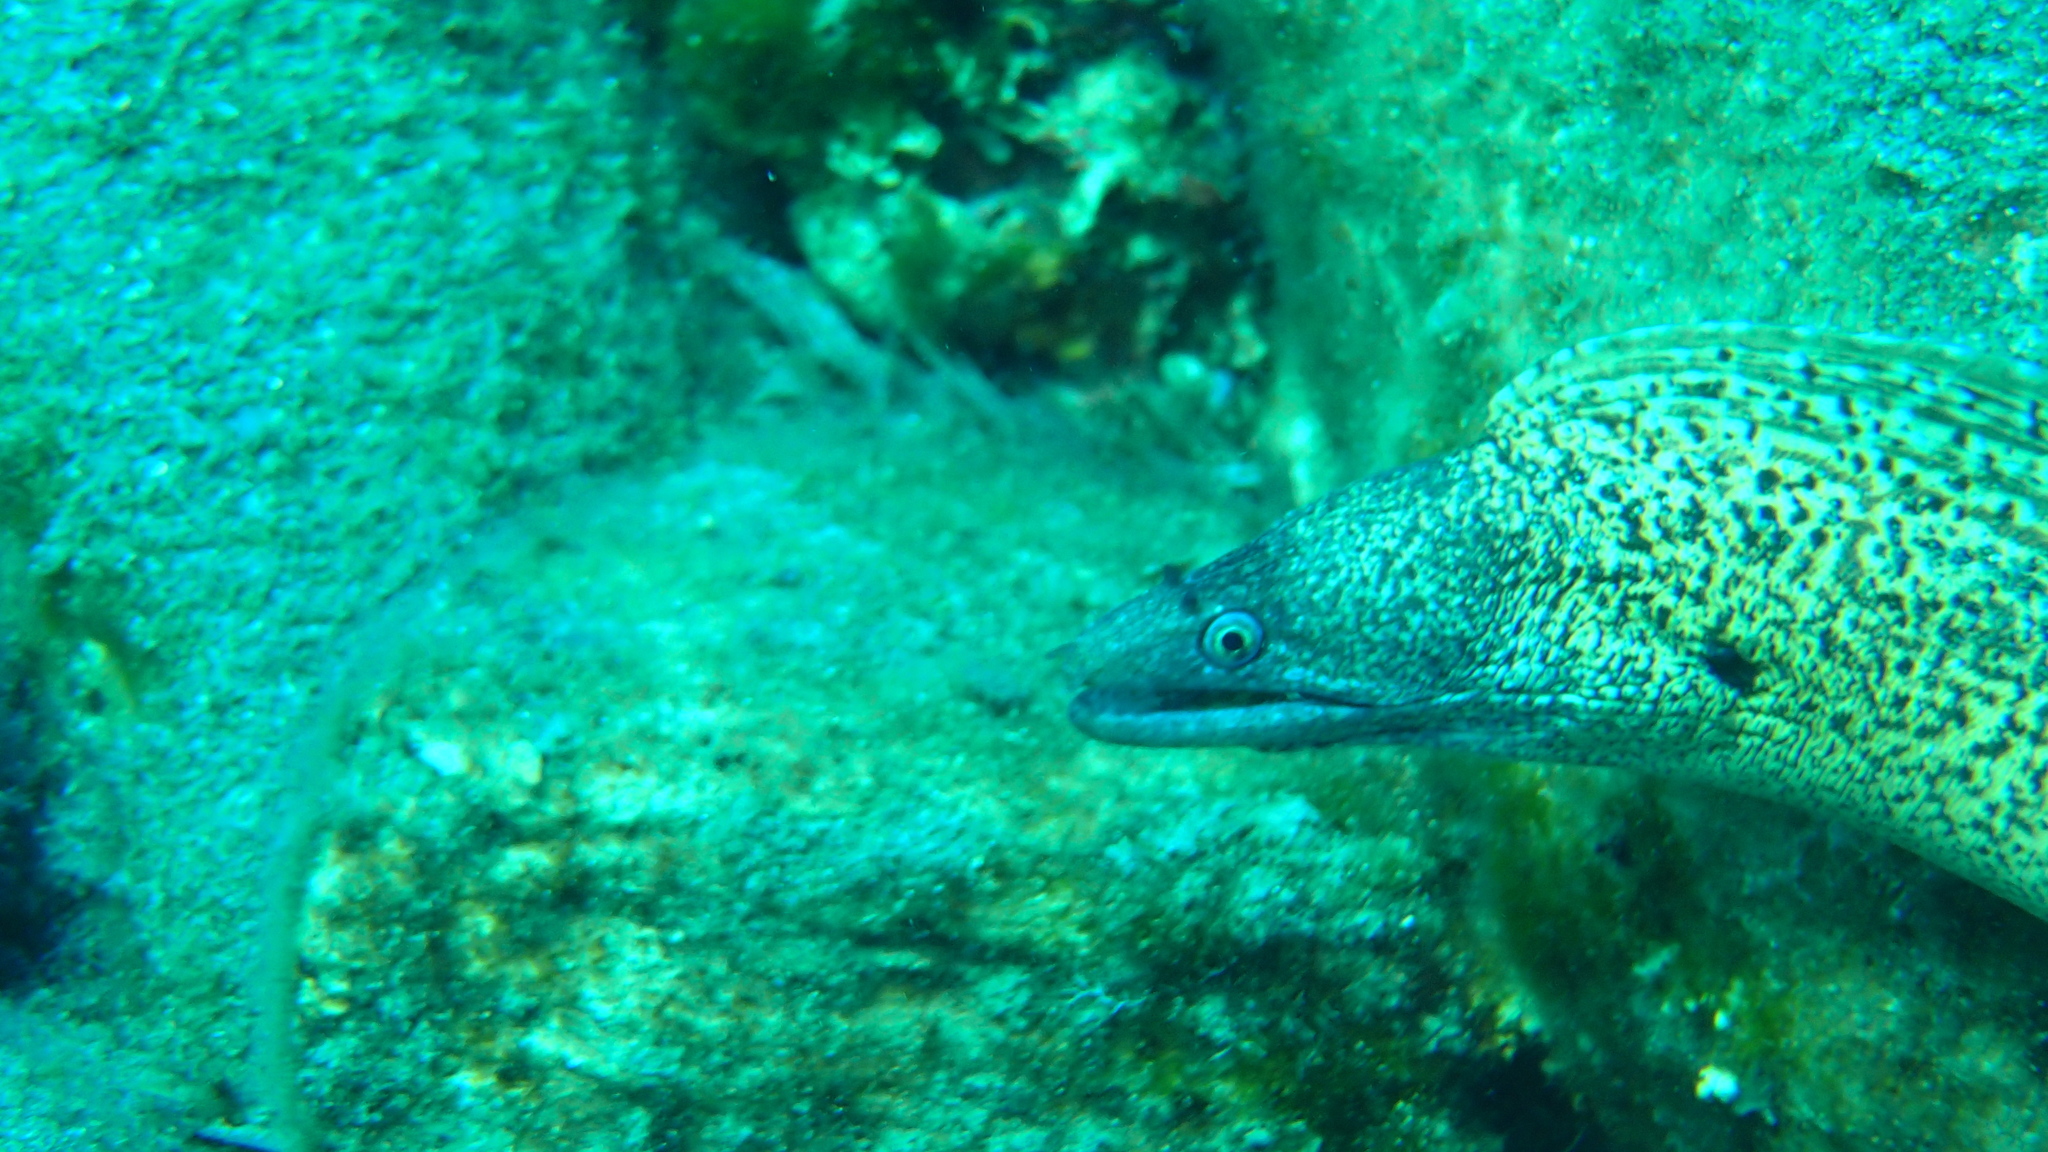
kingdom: Animalia
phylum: Chordata
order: Anguilliformes
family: Muraenidae
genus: Muraena
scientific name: Muraena helena
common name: Mediterranean moray
